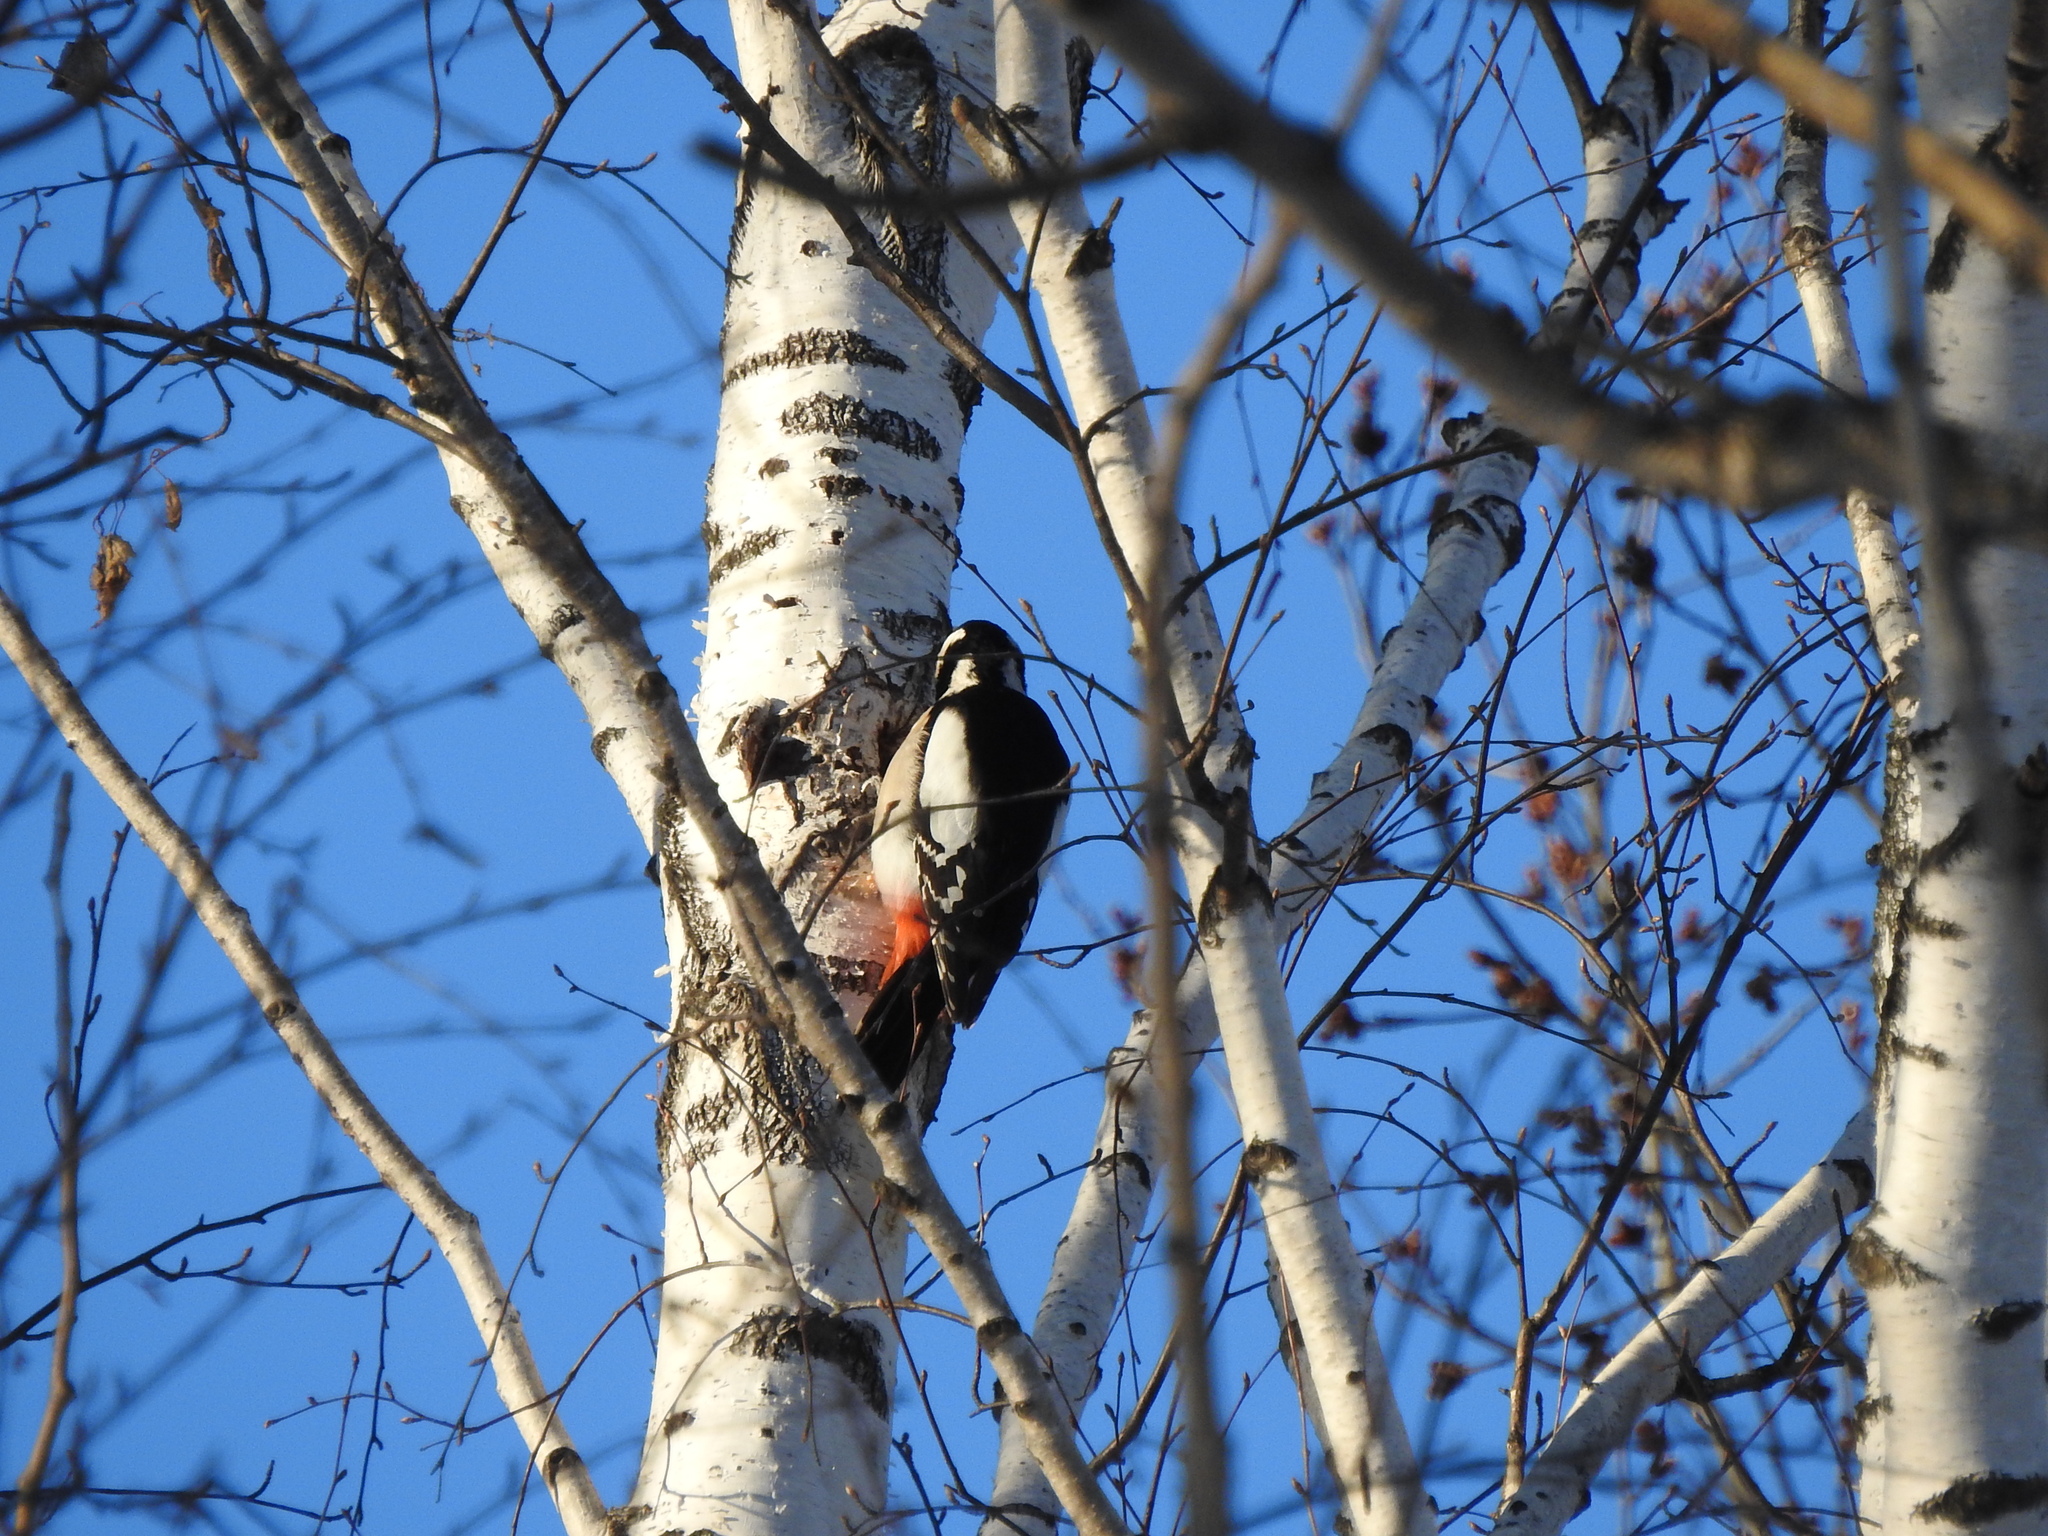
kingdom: Animalia
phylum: Chordata
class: Aves
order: Piciformes
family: Picidae
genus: Dendrocopos
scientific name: Dendrocopos major
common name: Great spotted woodpecker
